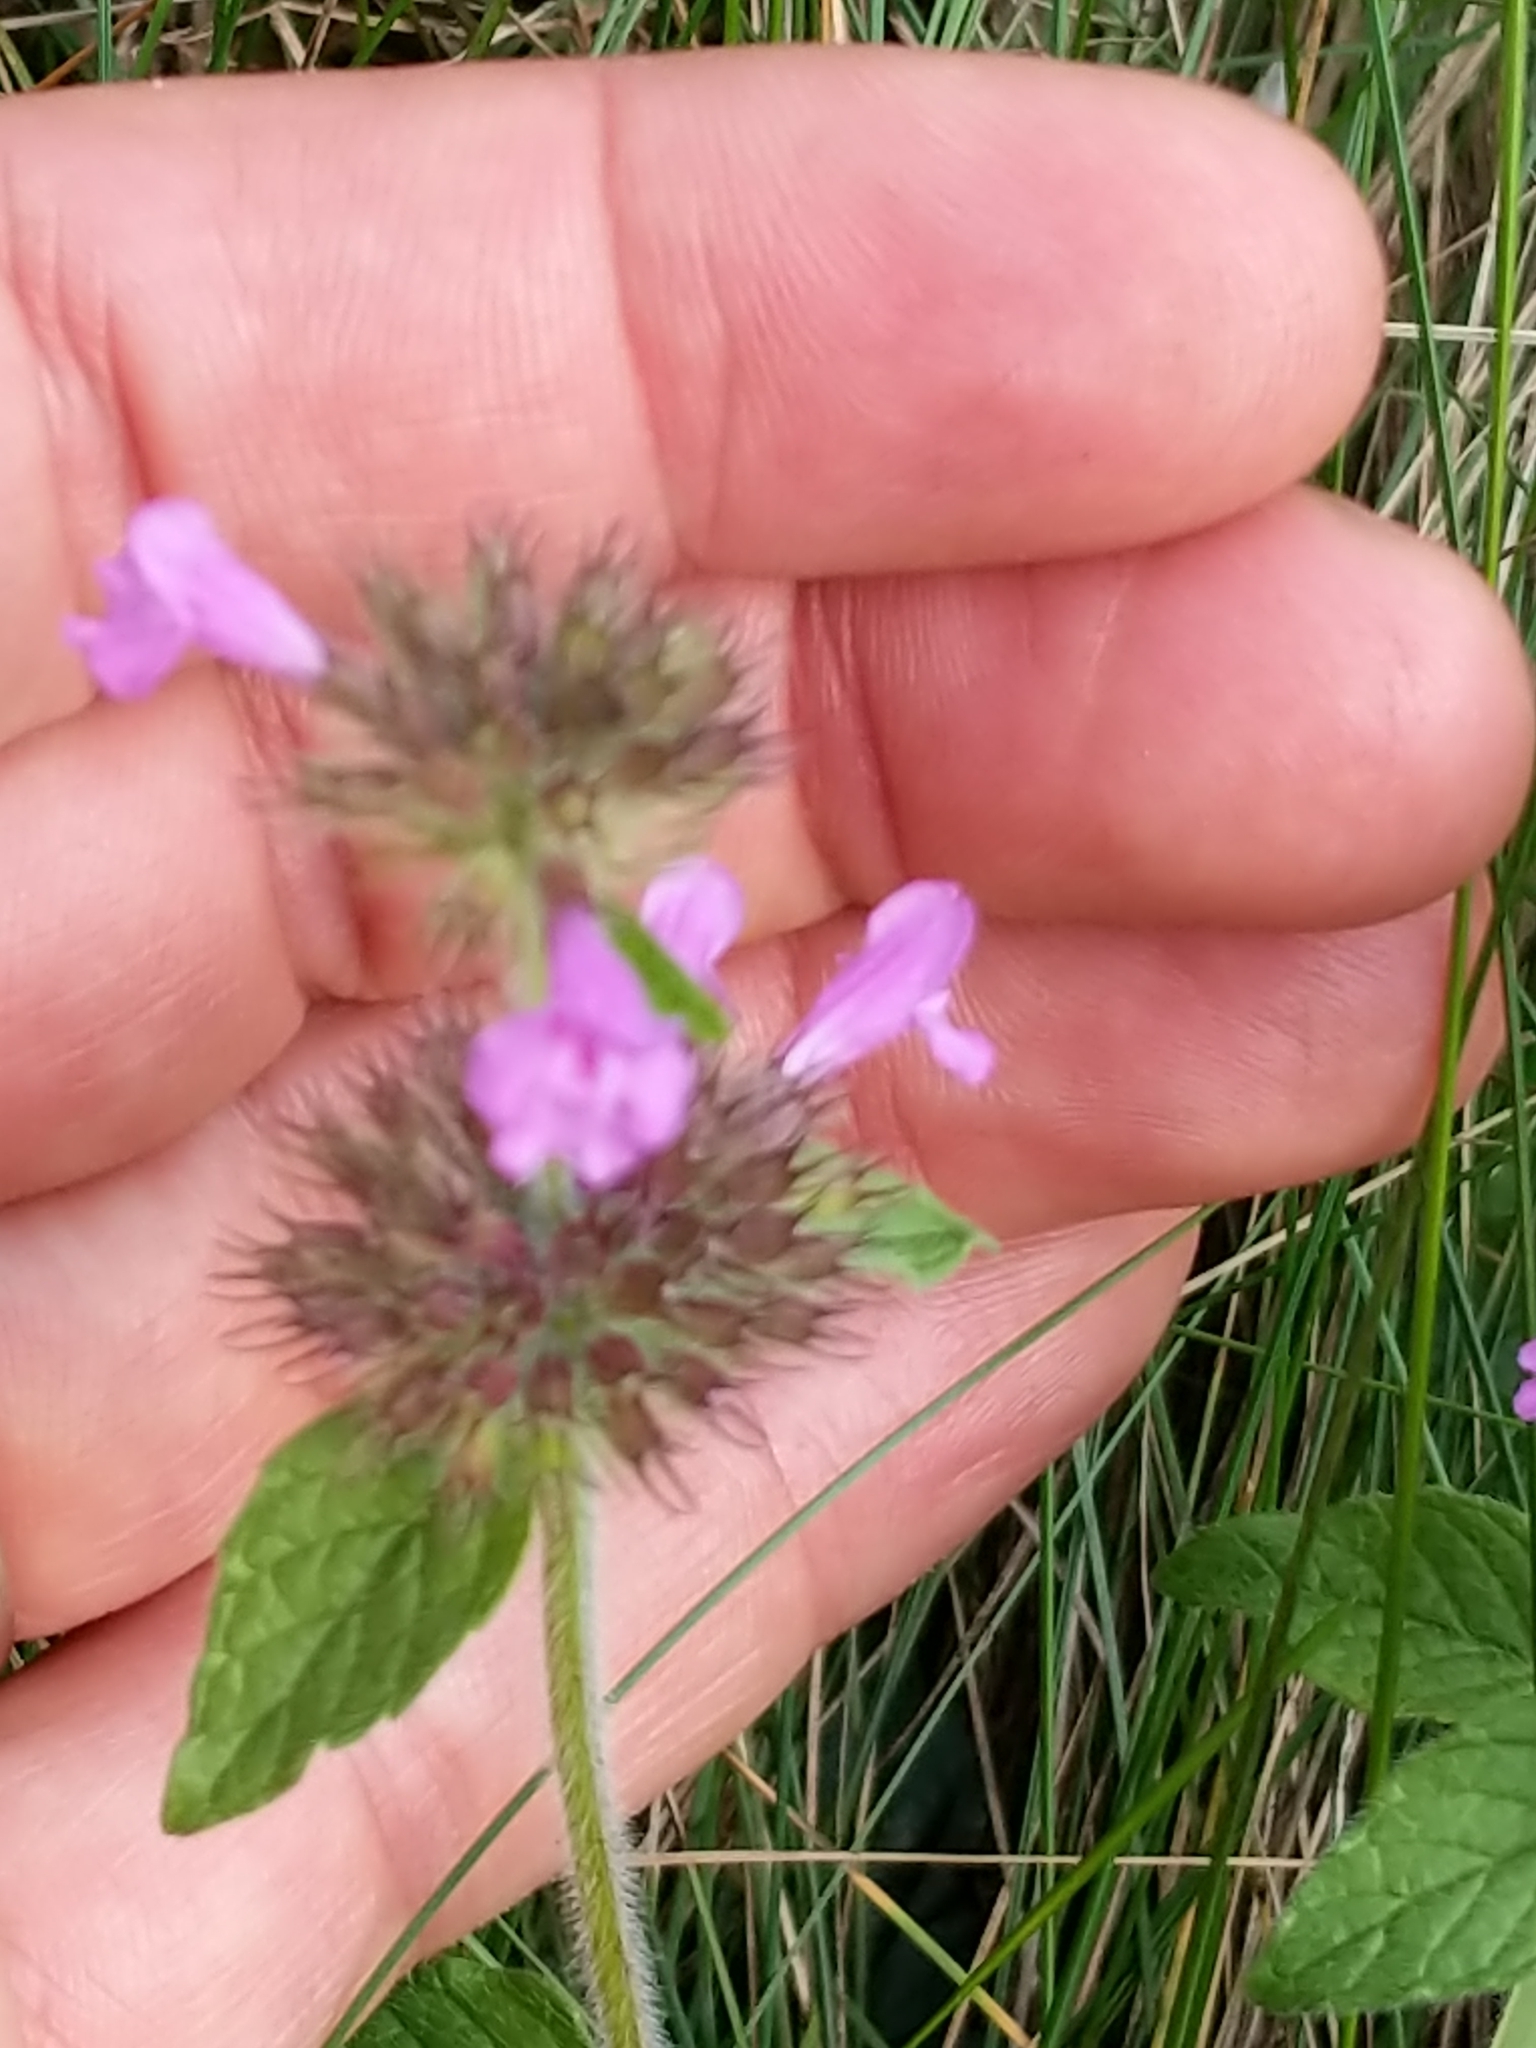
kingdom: Plantae
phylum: Tracheophyta
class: Magnoliopsida
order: Lamiales
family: Lamiaceae
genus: Clinopodium
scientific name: Clinopodium vulgare
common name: Wild basil
